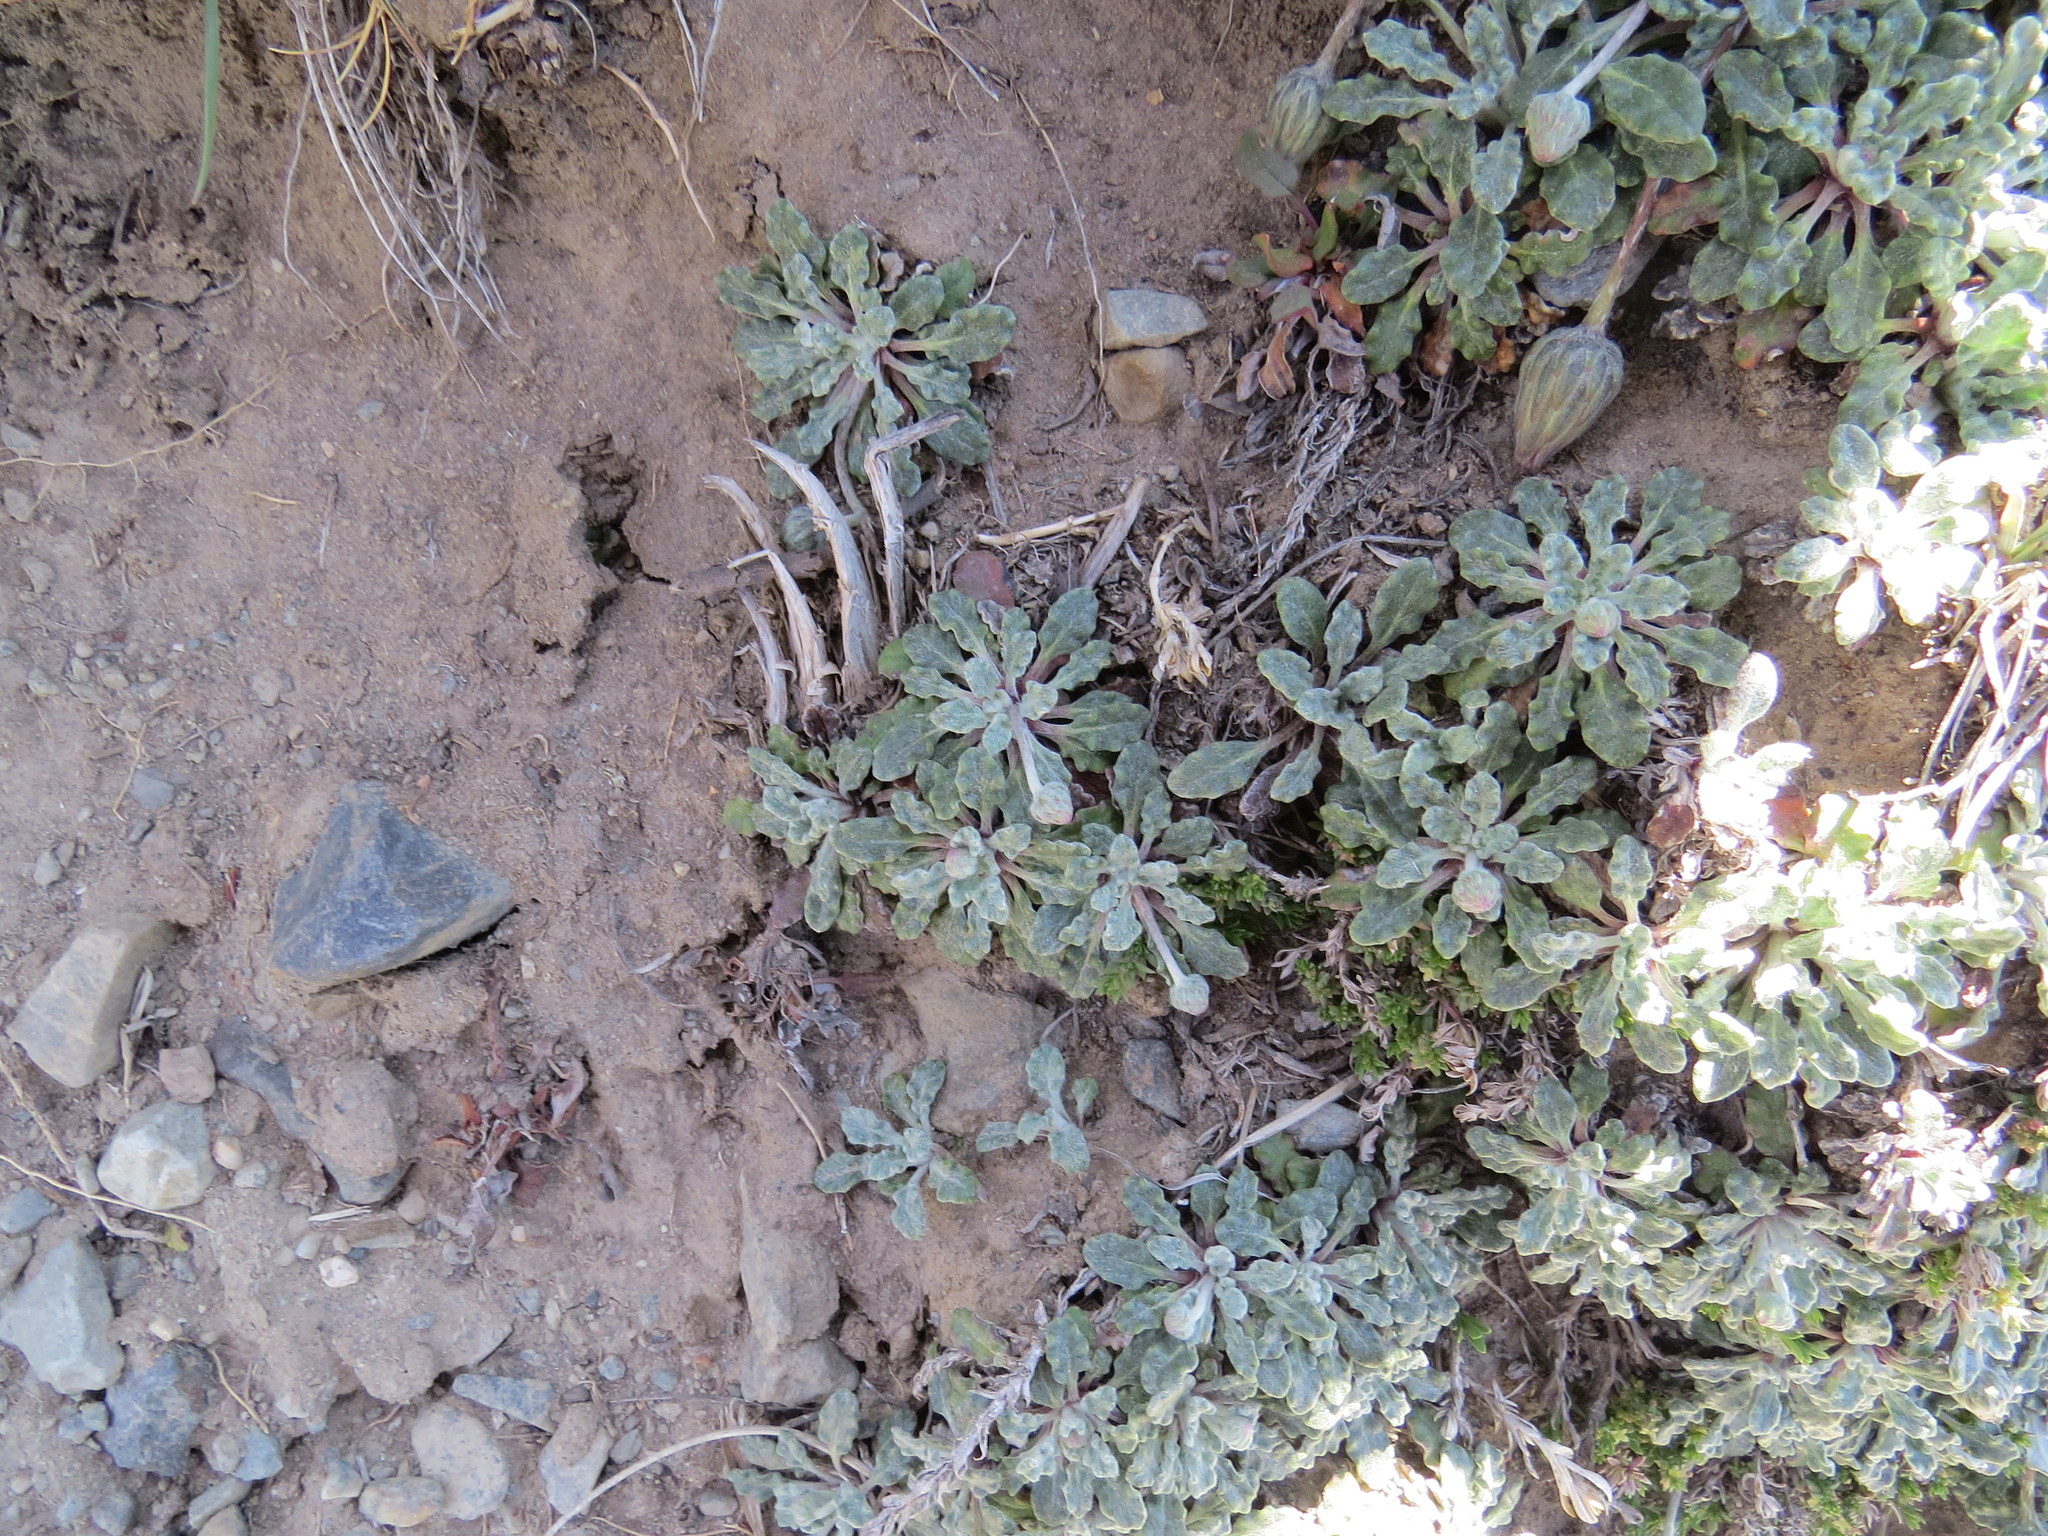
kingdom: Plantae
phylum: Tracheophyta
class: Magnoliopsida
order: Asterales
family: Asteraceae
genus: Trichocline
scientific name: Trichocline dealbata
